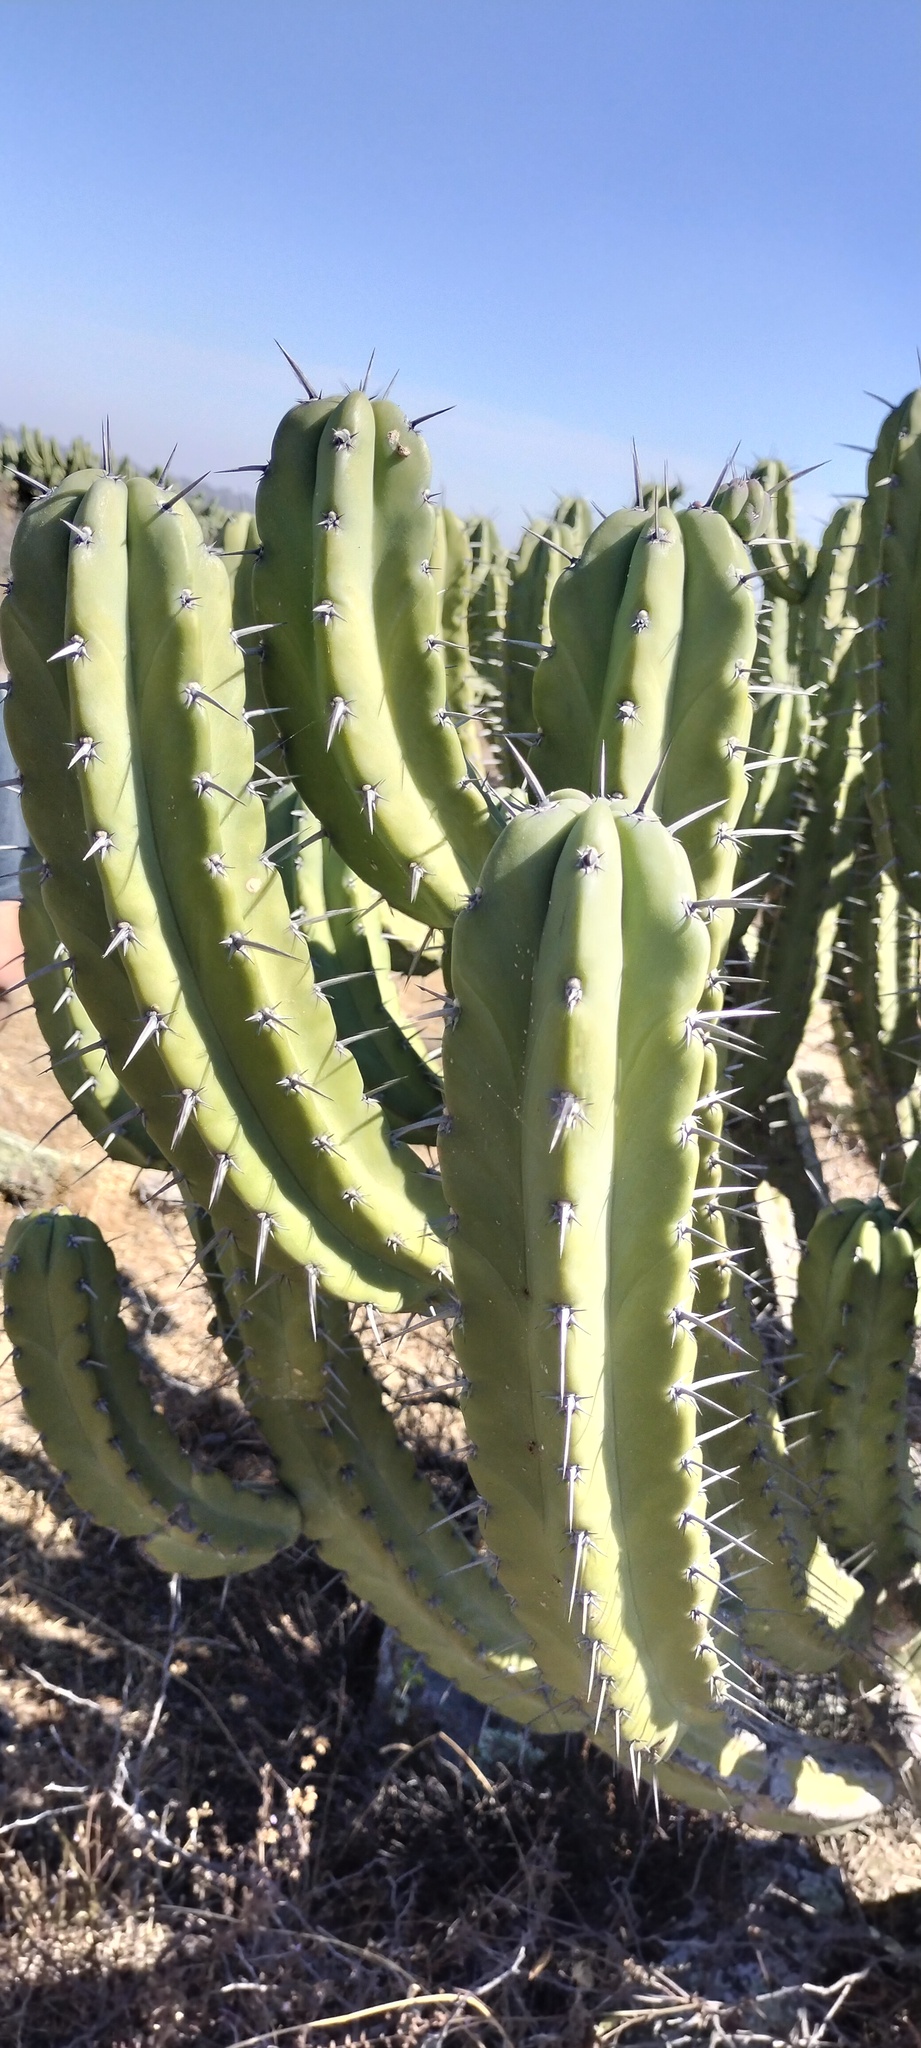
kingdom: Plantae
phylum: Tracheophyta
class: Magnoliopsida
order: Caryophyllales
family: Cactaceae
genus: Myrtillocactus
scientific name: Myrtillocactus geometrizans
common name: Bilberry cactus
